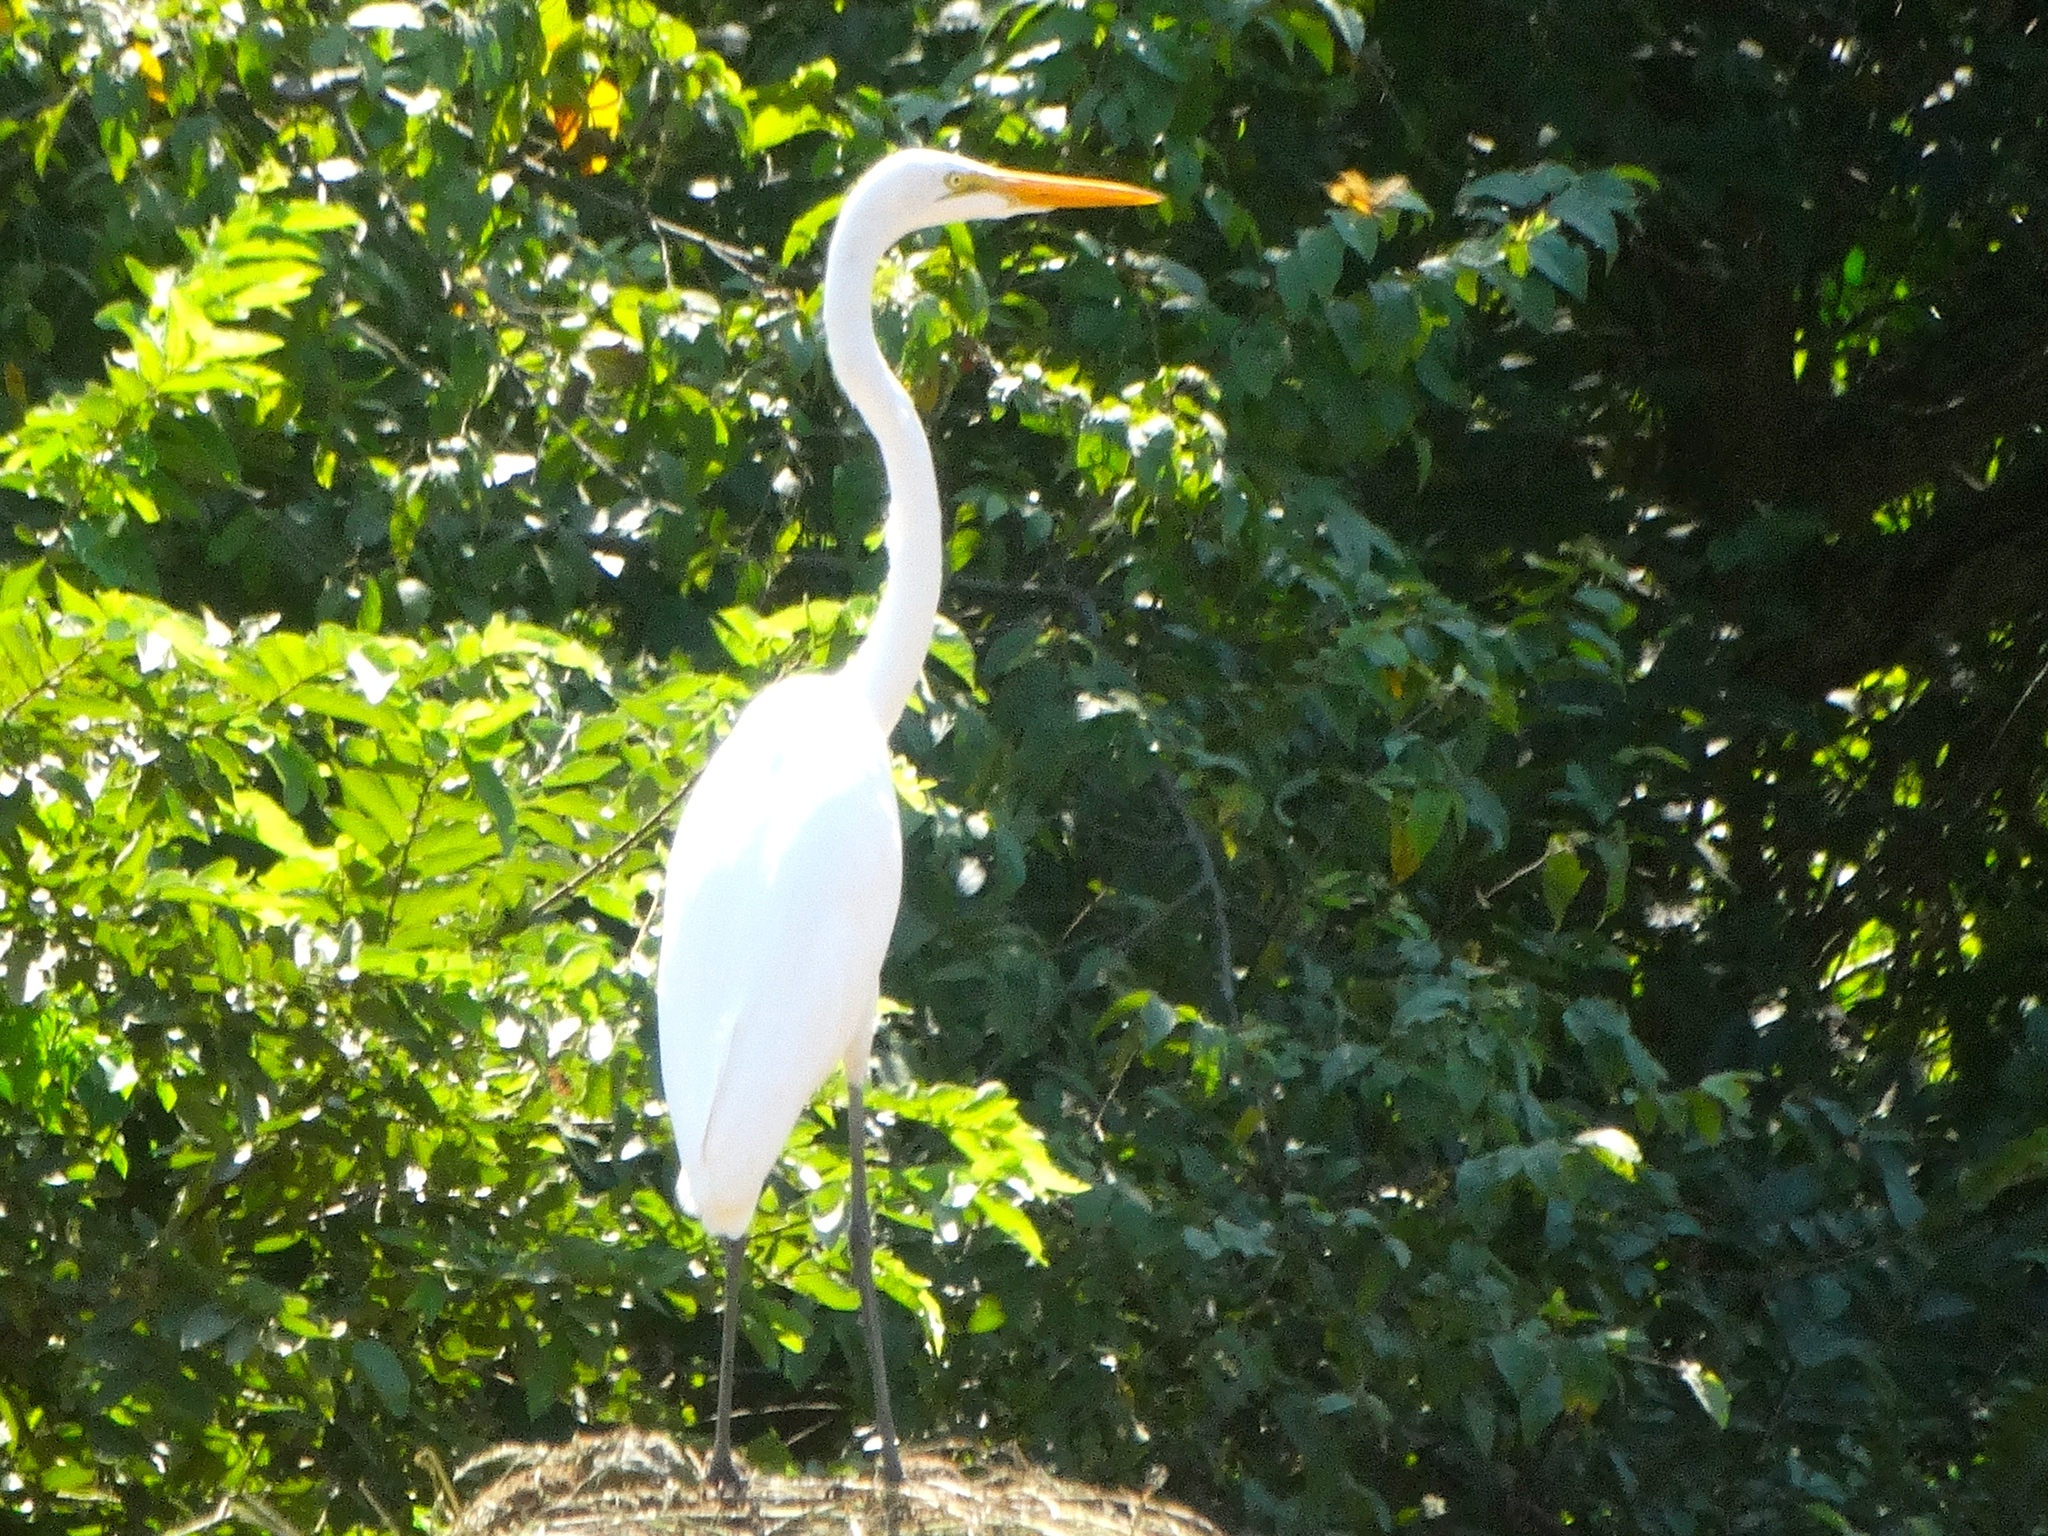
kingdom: Animalia
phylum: Chordata
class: Aves
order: Pelecaniformes
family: Ardeidae
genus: Ardea
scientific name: Ardea alba
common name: Great egret
